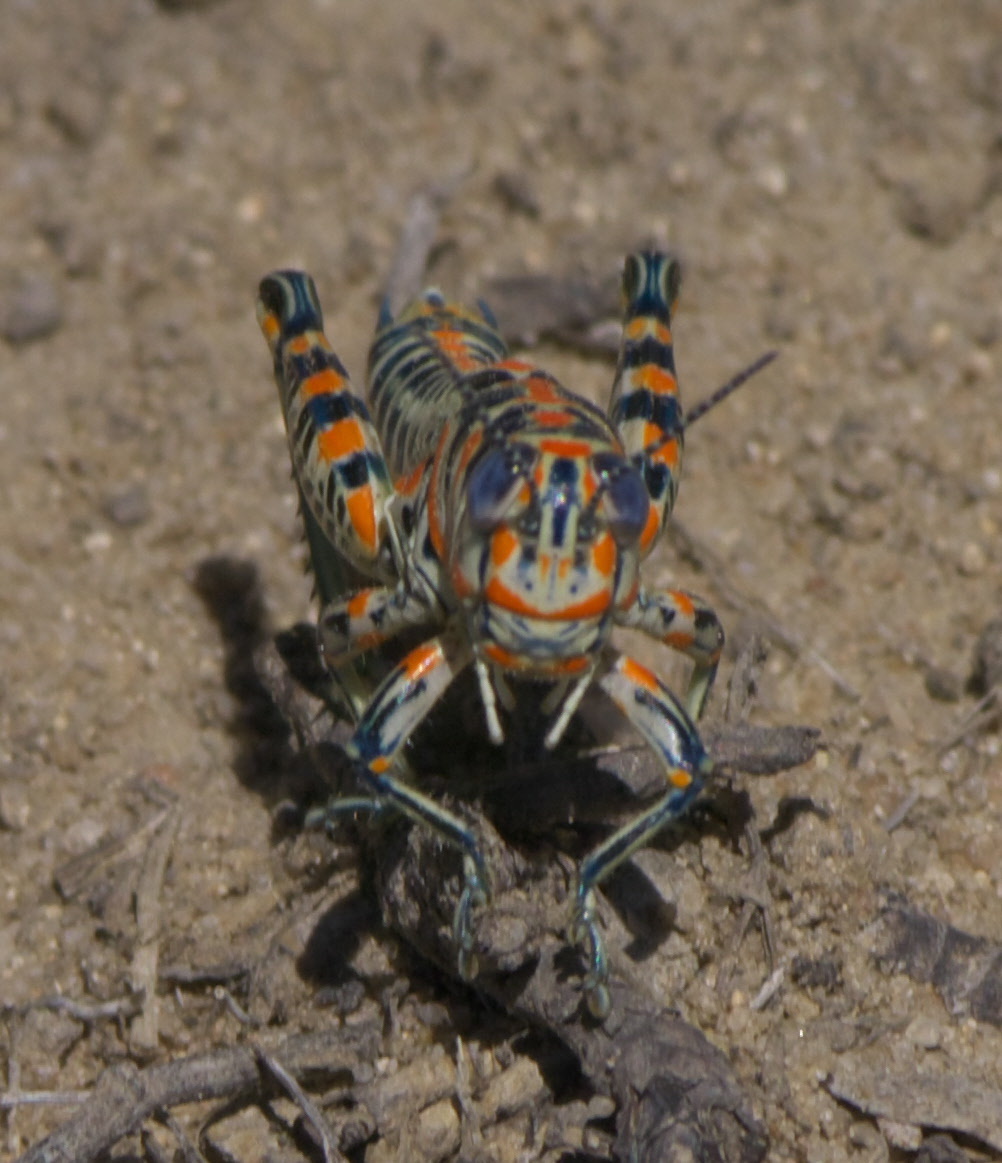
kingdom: Animalia
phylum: Arthropoda
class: Insecta
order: Orthoptera
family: Acrididae
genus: Dactylotum
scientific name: Dactylotum bicolor
